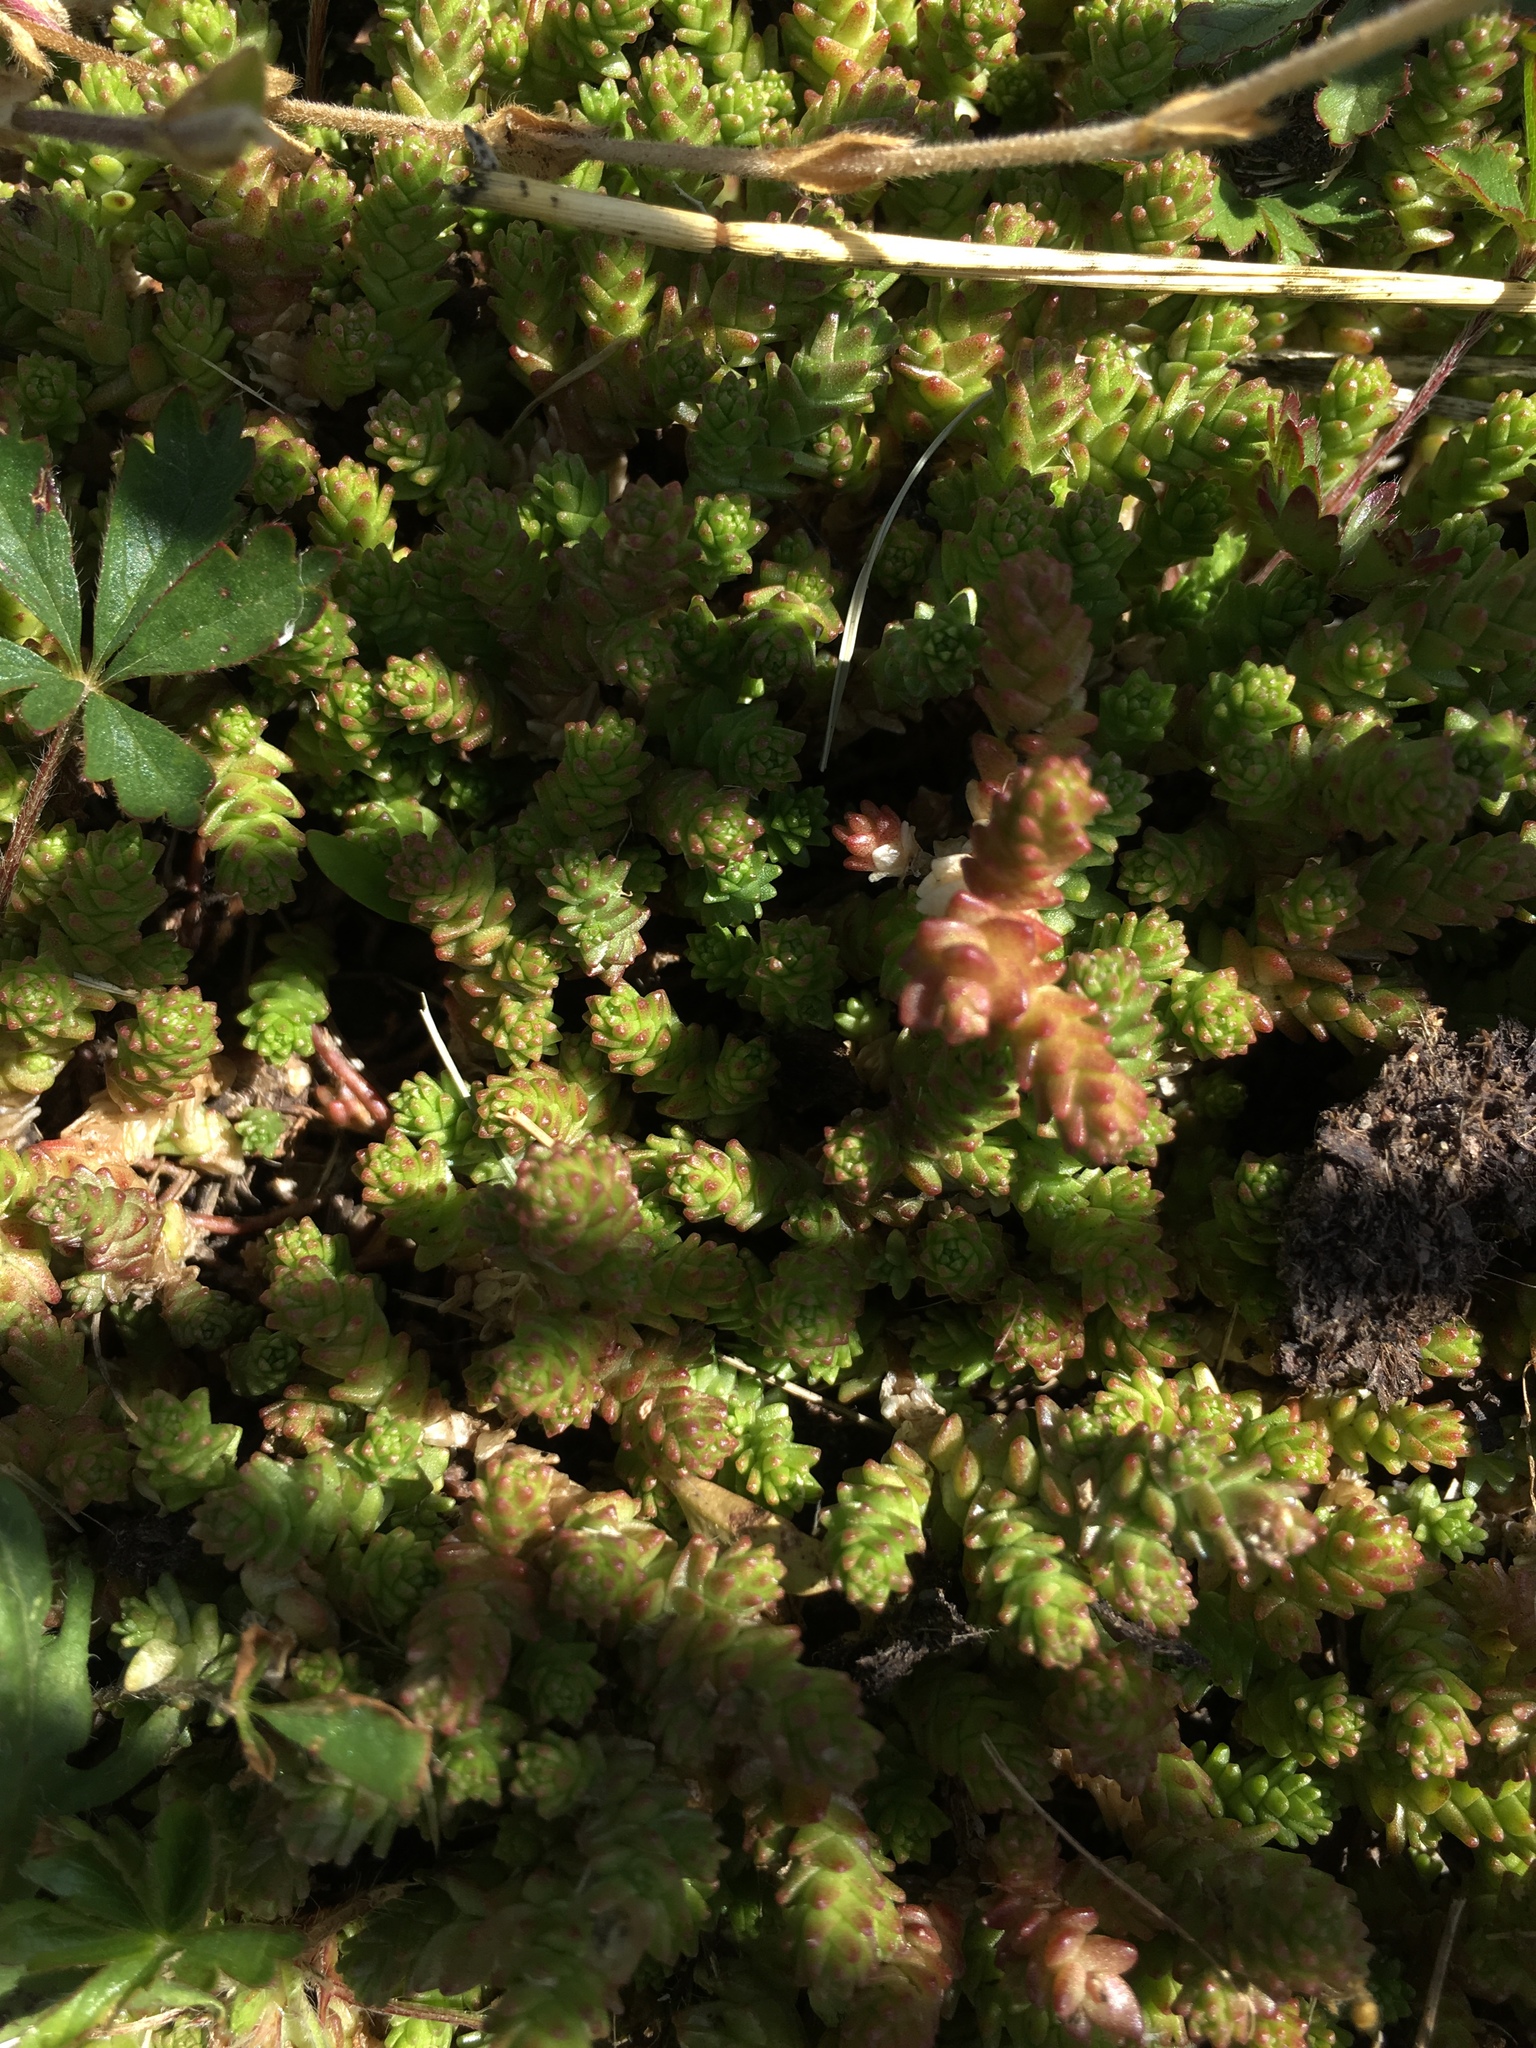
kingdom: Plantae
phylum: Tracheophyta
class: Magnoliopsida
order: Saxifragales
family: Crassulaceae
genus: Sedum
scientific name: Sedum acre
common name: Biting stonecrop
